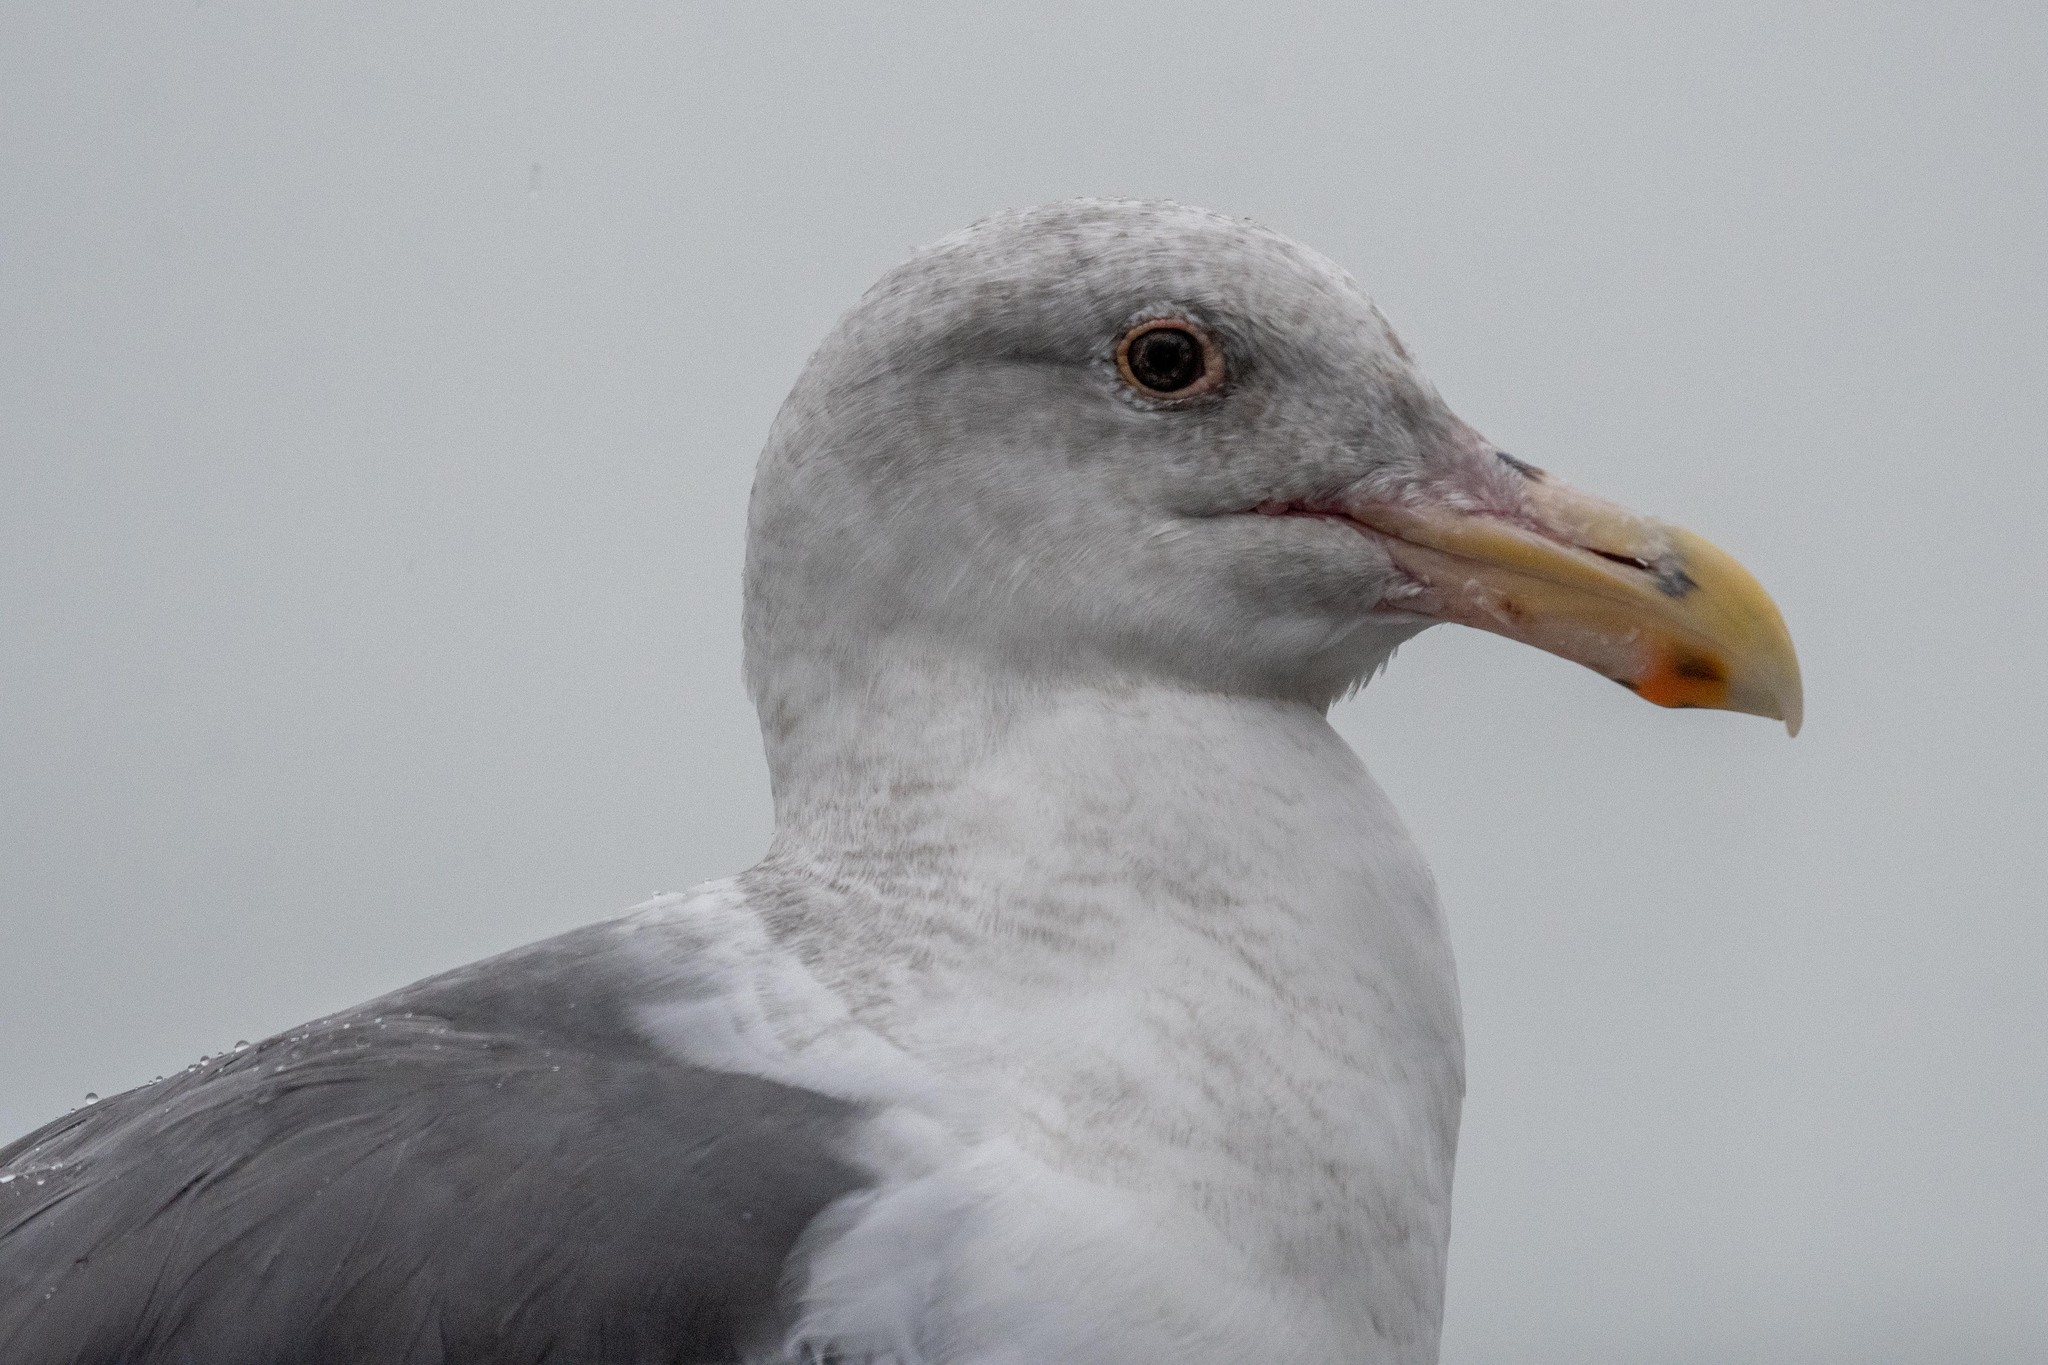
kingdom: Animalia
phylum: Chordata
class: Aves
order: Charadriiformes
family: Laridae
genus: Larus
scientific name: Larus occidentalis
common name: Western gull
